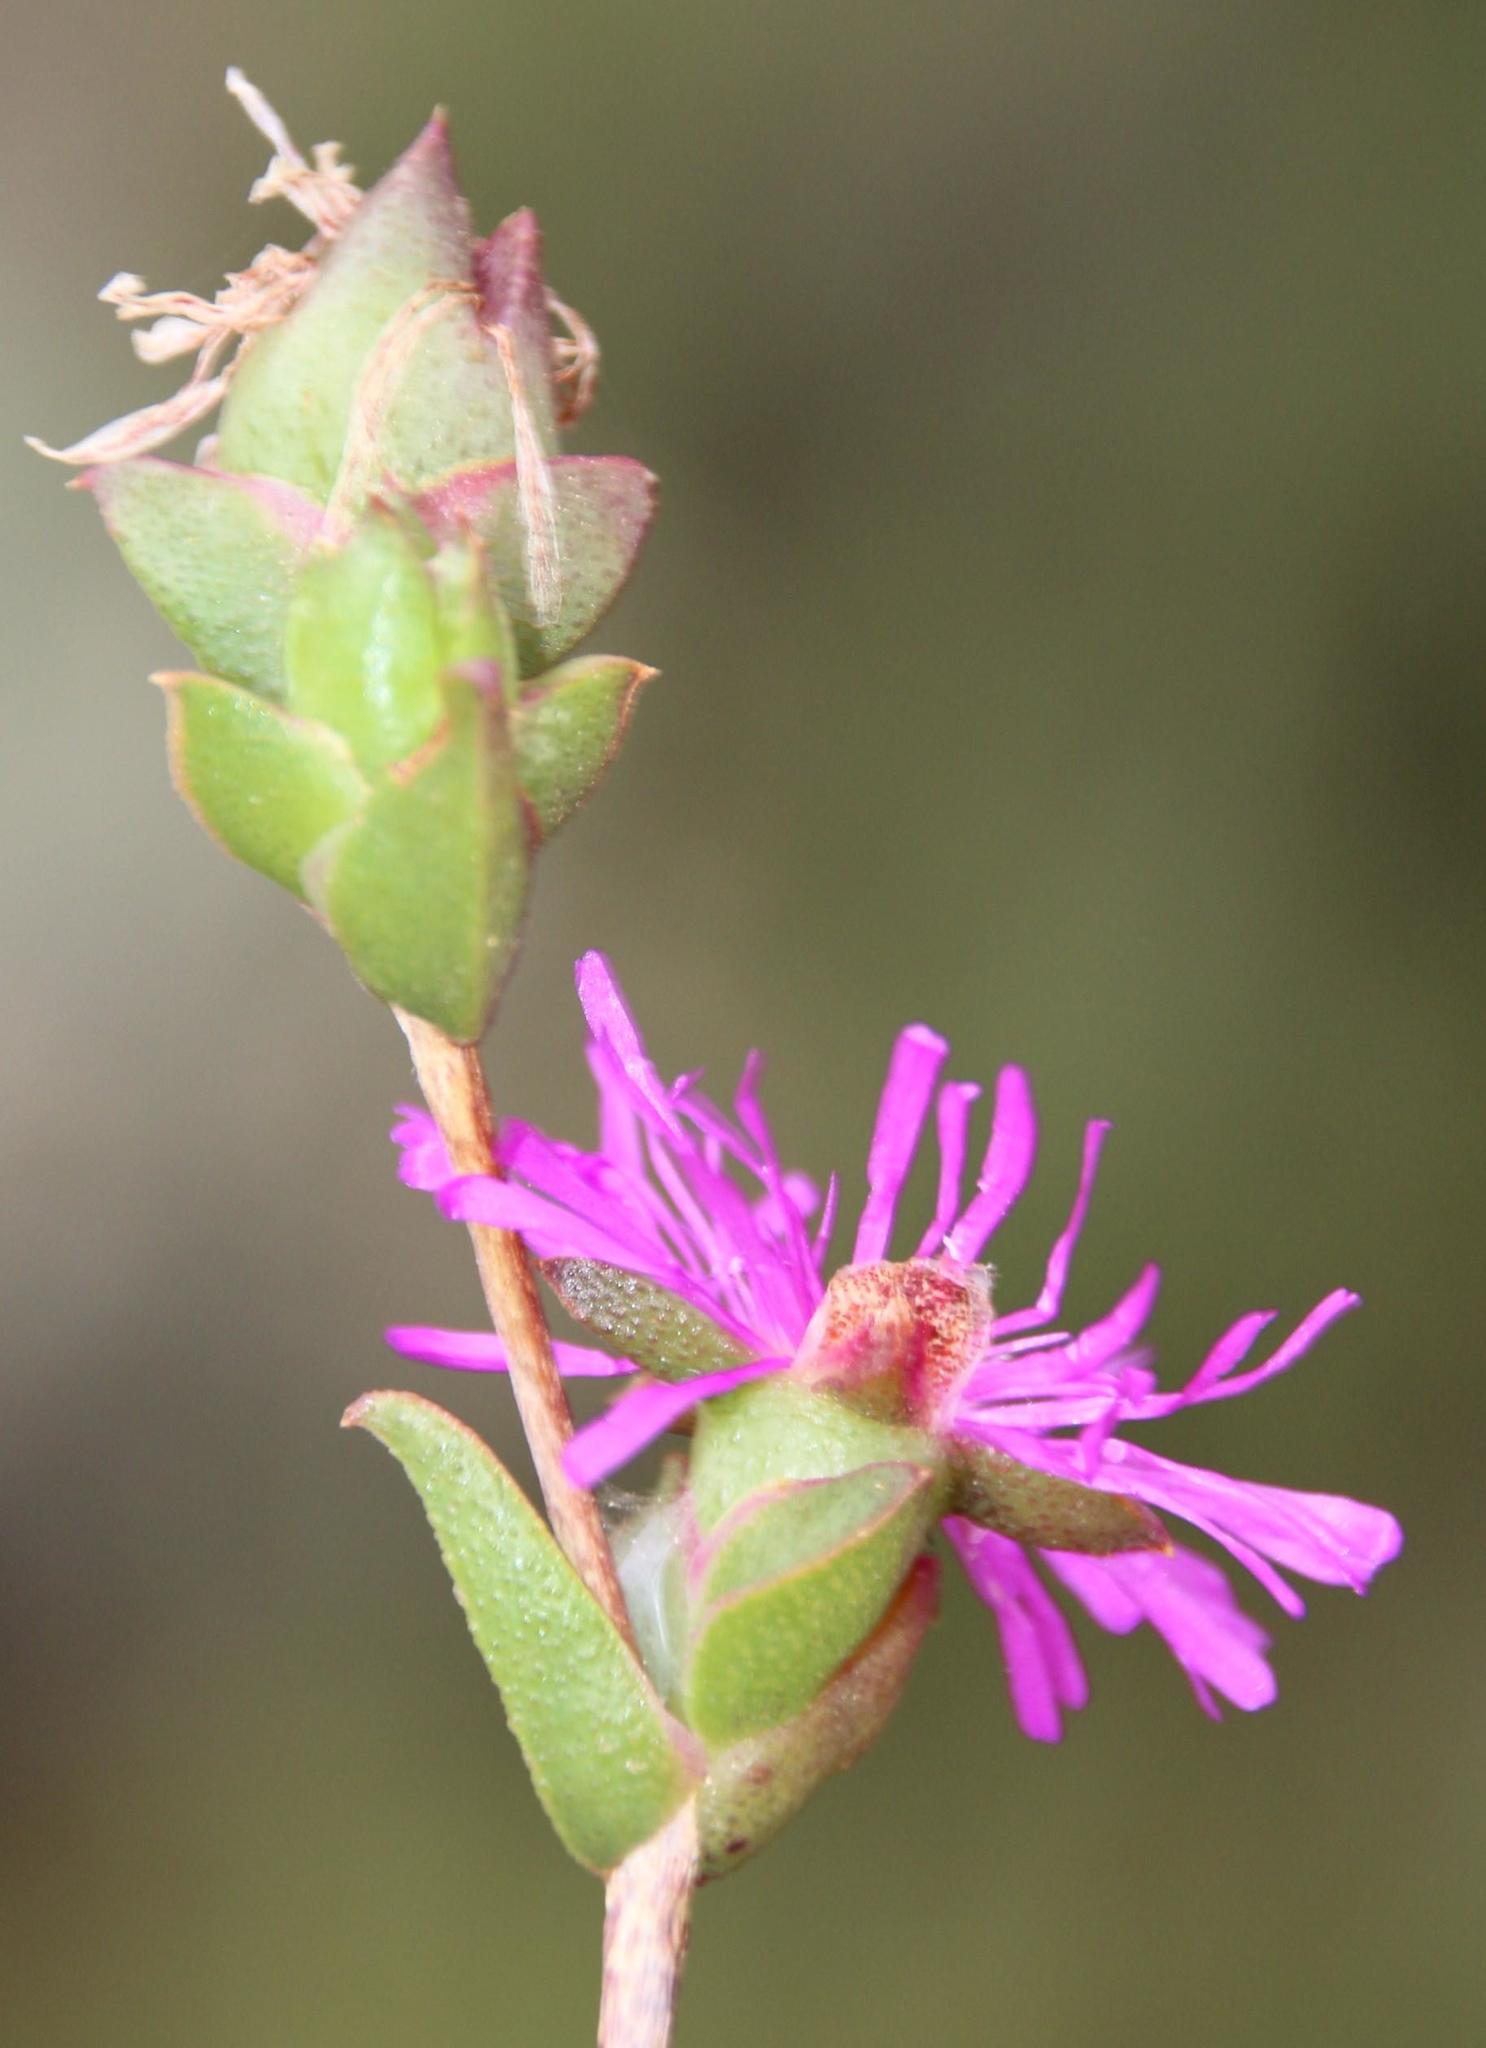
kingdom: Plantae
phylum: Tracheophyta
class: Magnoliopsida
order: Caryophyllales
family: Aizoaceae
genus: Erepsia
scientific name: Erepsia bracteata
